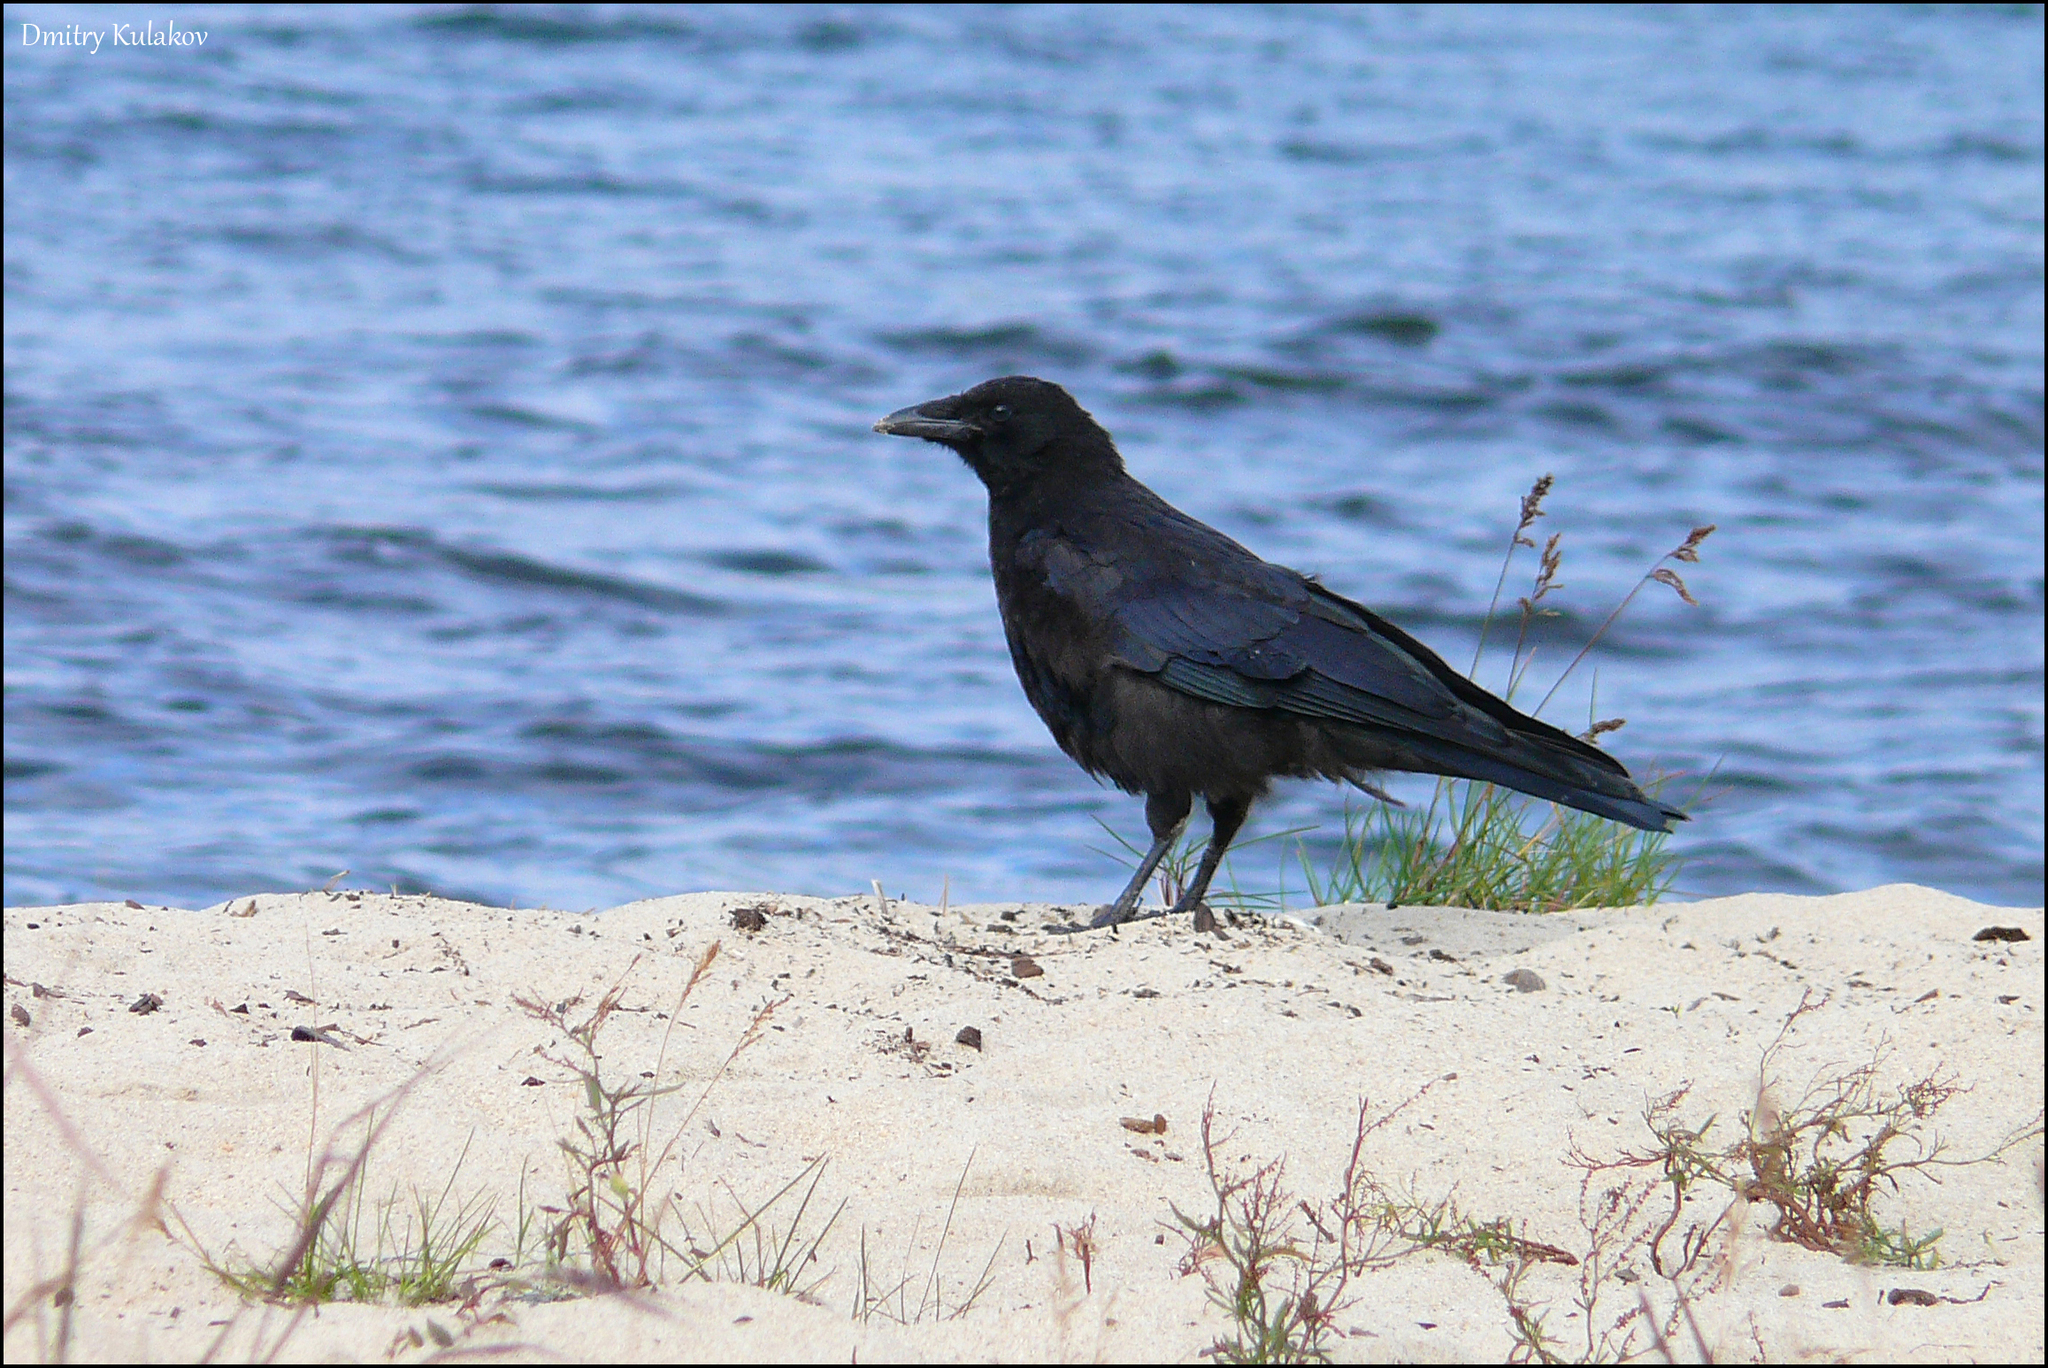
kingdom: Animalia
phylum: Chordata
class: Aves
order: Passeriformes
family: Corvidae
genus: Corvus
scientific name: Corvus corone
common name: Carrion crow
